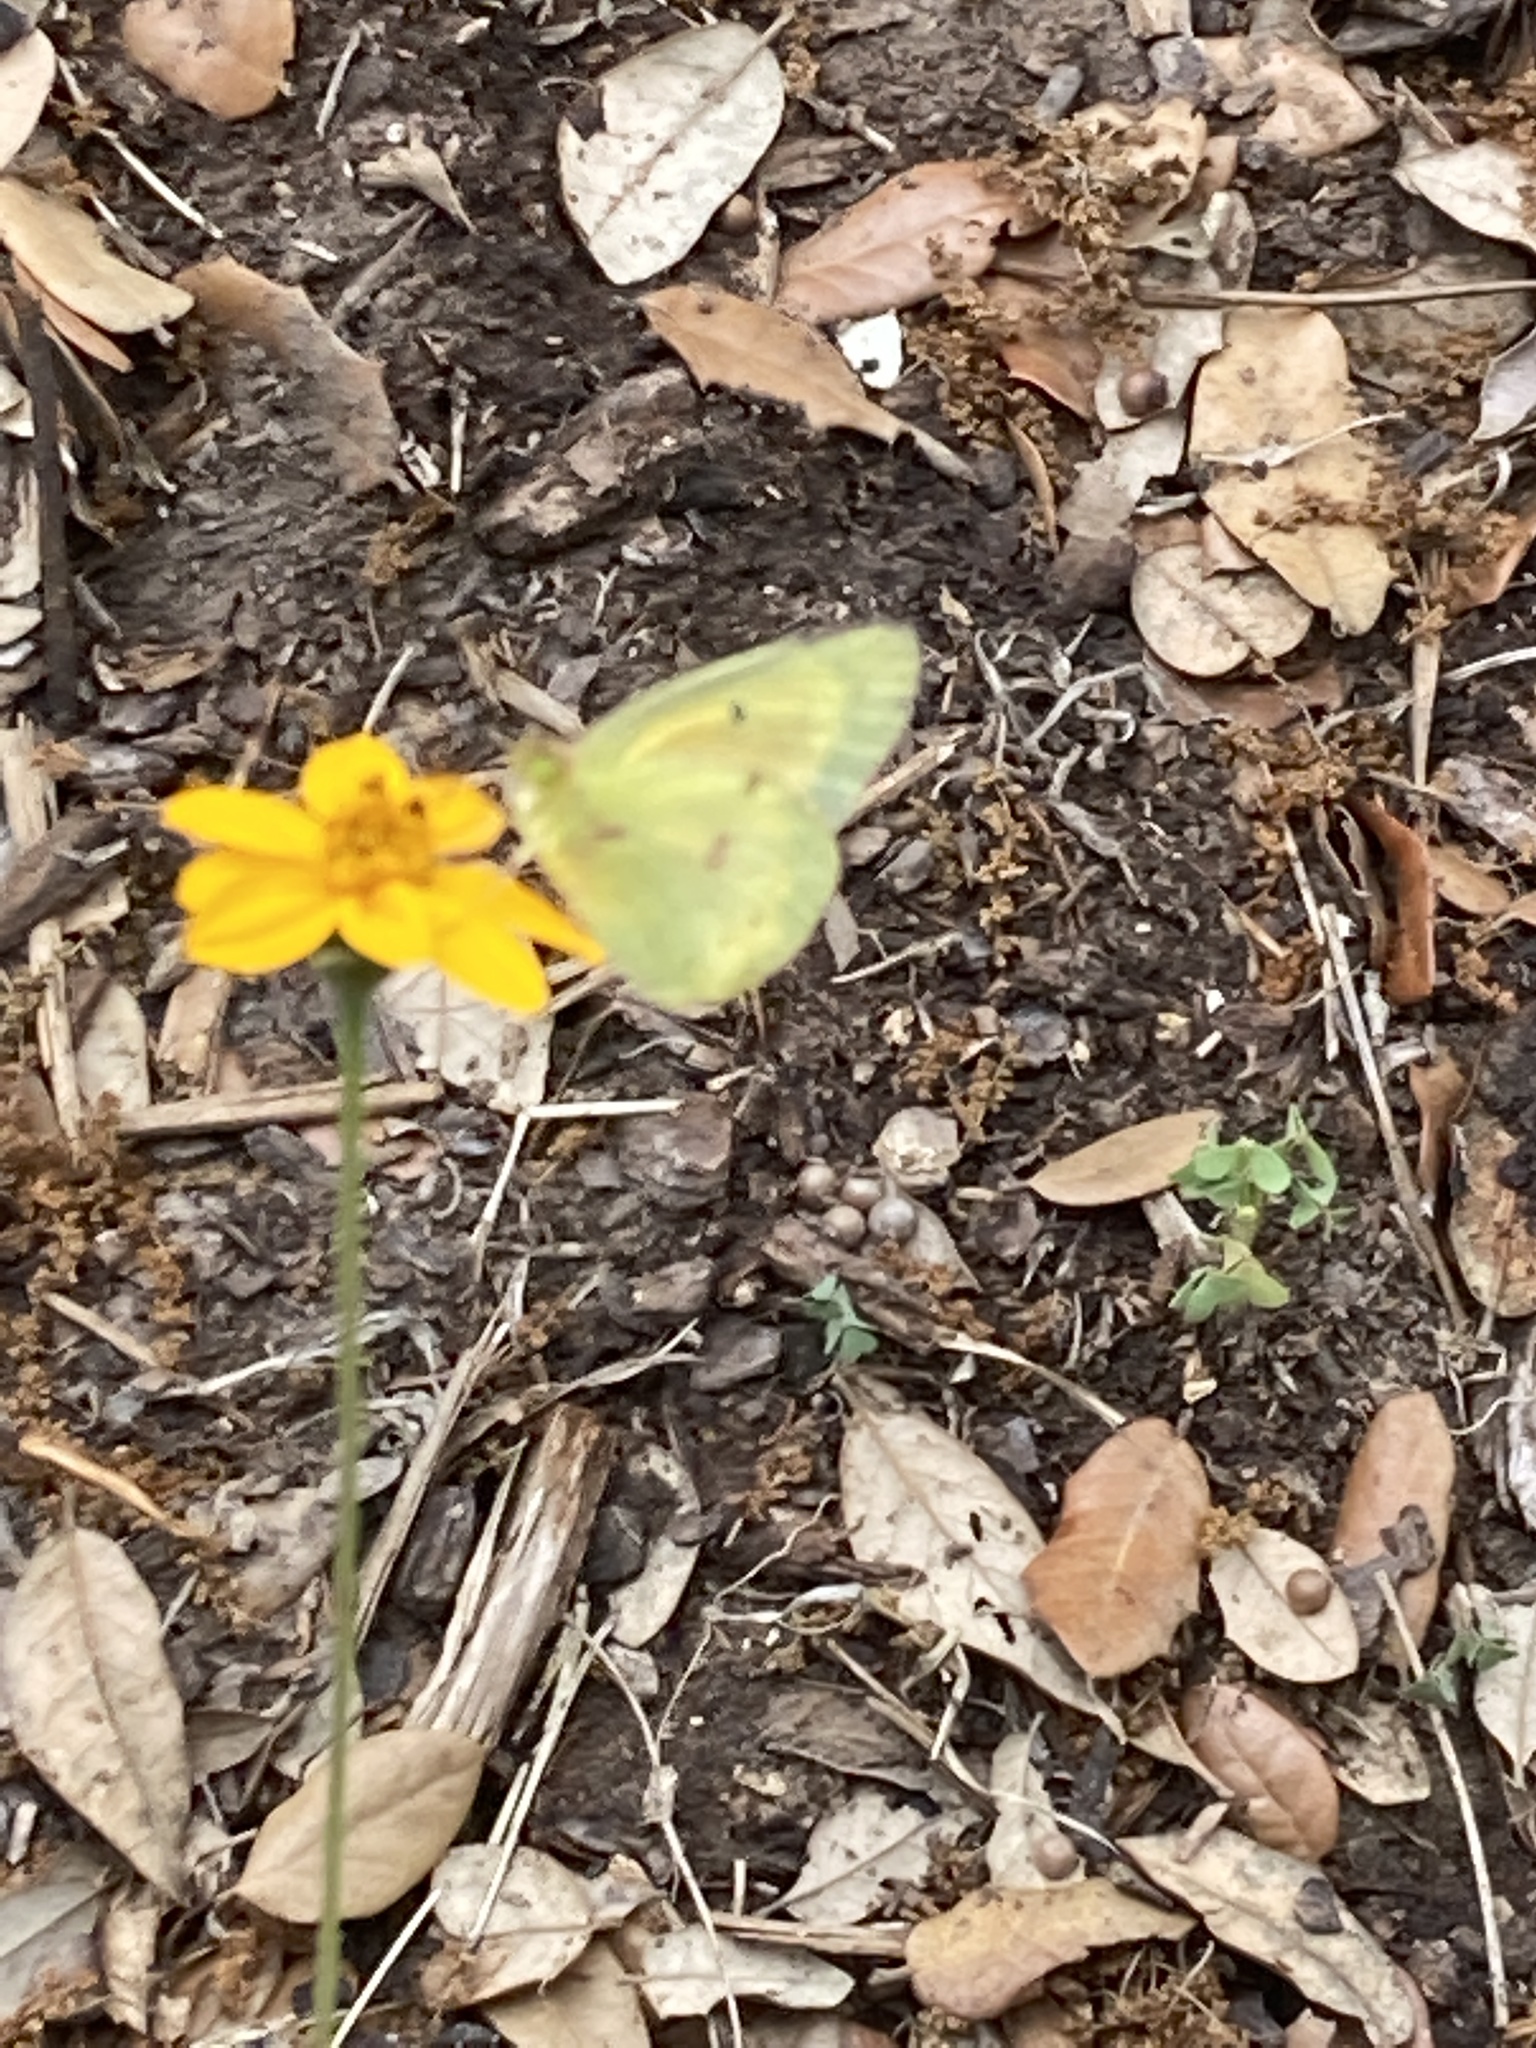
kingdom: Animalia
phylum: Arthropoda
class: Insecta
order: Lepidoptera
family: Pieridae
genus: Colias
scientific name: Colias eurytheme
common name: Alfalfa butterfly
